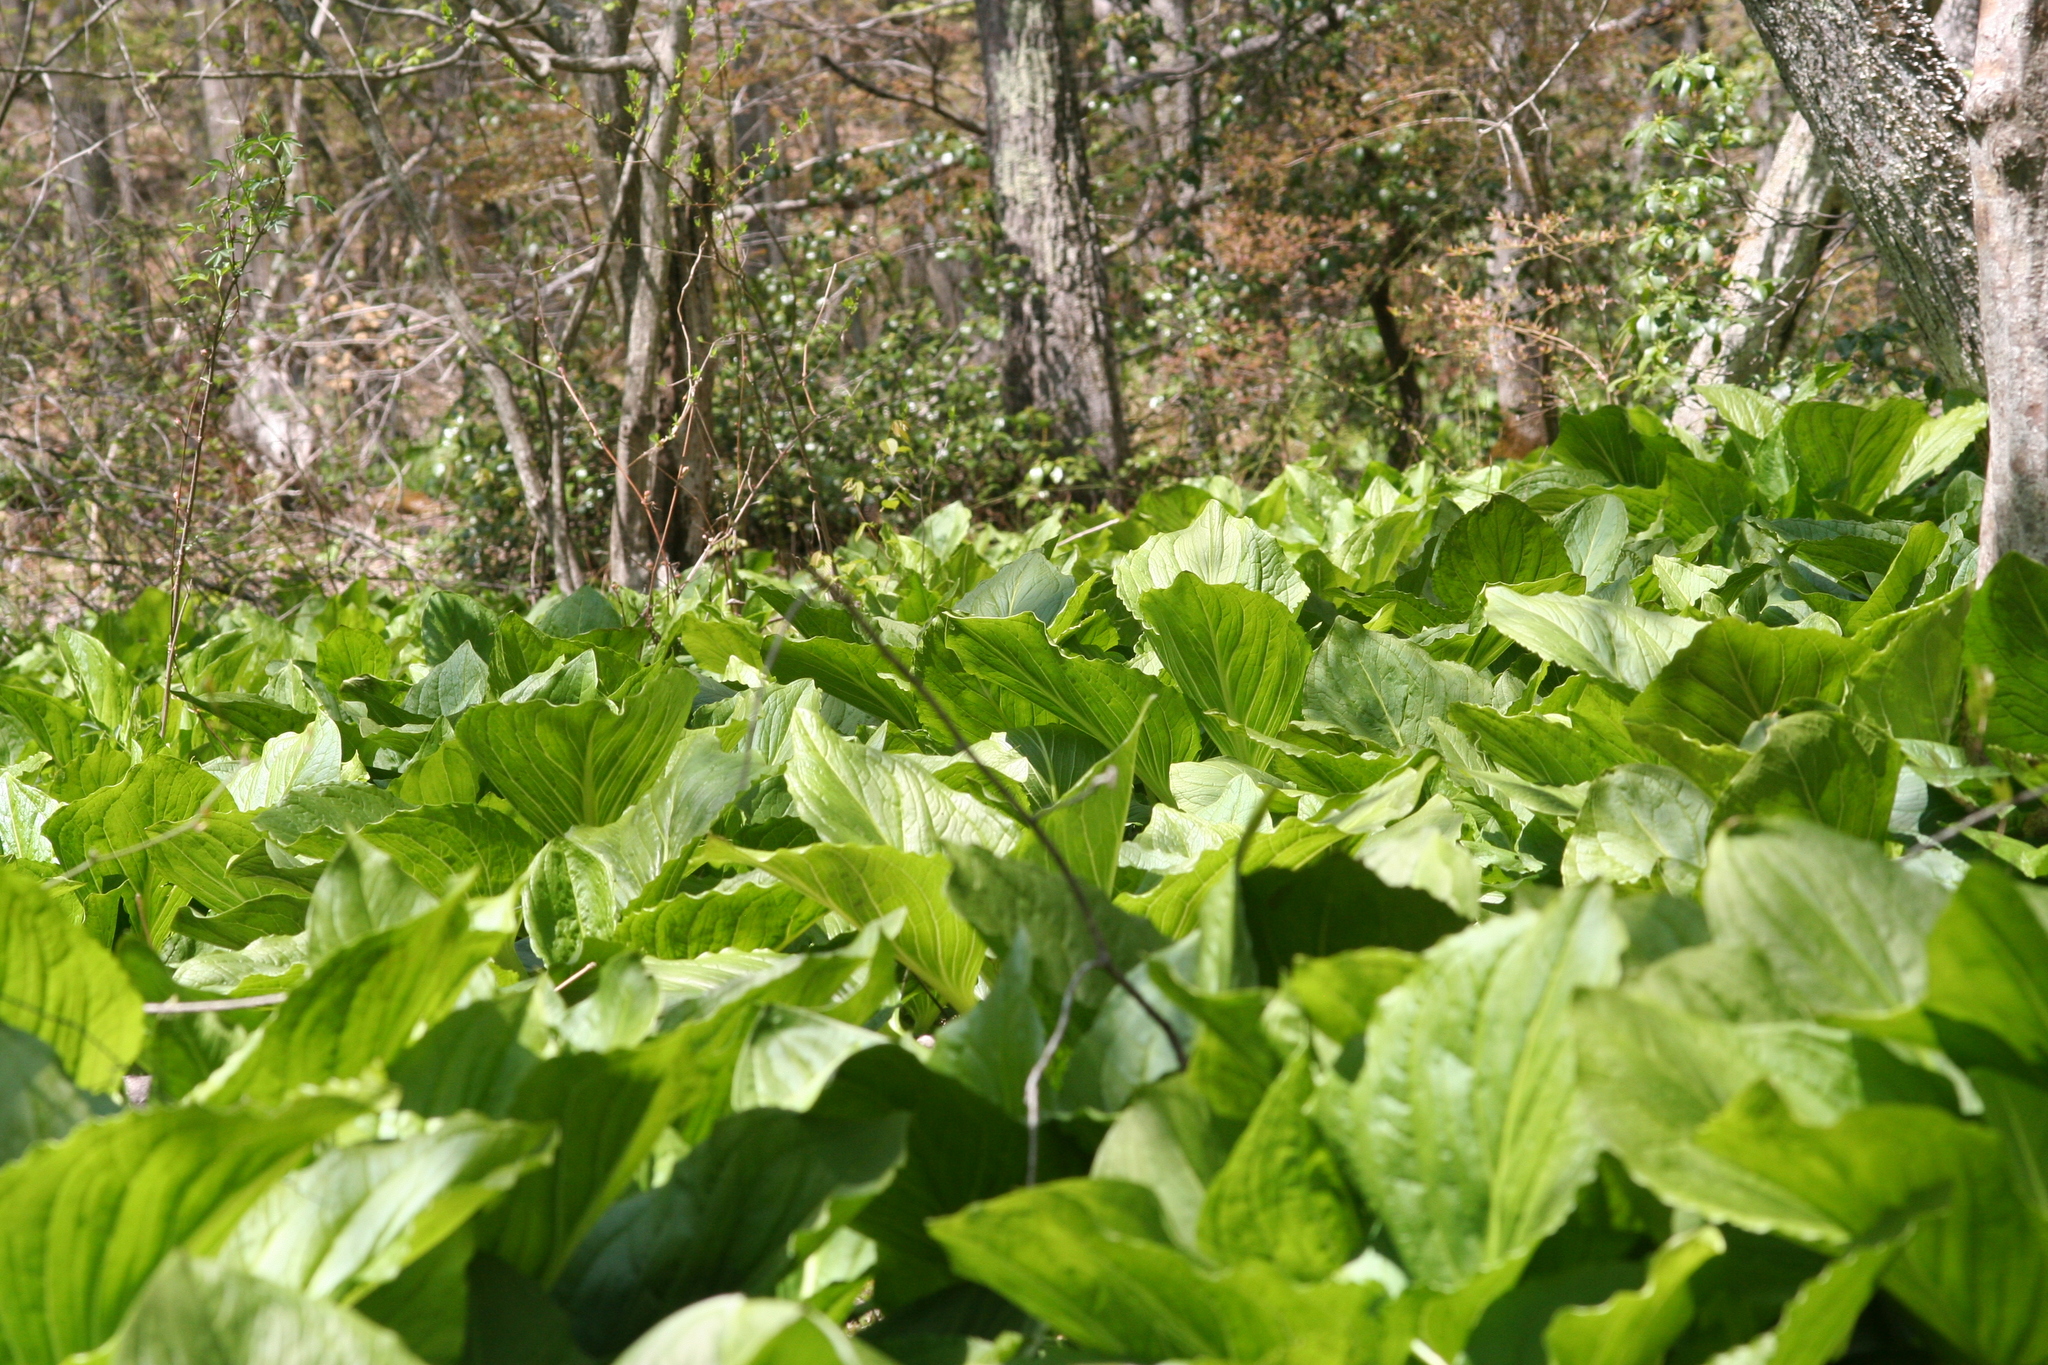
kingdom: Plantae
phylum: Tracheophyta
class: Liliopsida
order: Alismatales
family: Araceae
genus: Symplocarpus
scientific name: Symplocarpus foetidus
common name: Eastern skunk cabbage
